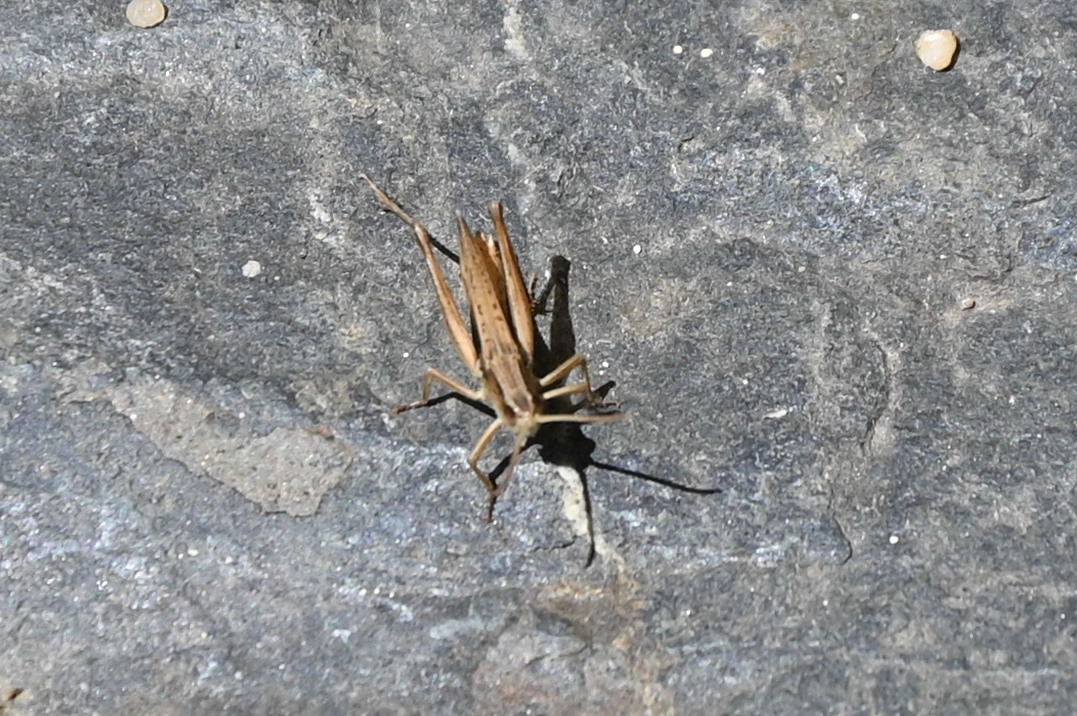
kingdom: Animalia
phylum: Arthropoda
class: Insecta
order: Orthoptera
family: Acrididae
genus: Chorthippus
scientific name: Chorthippus albomarginatus
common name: Lesser marsh grasshopper
